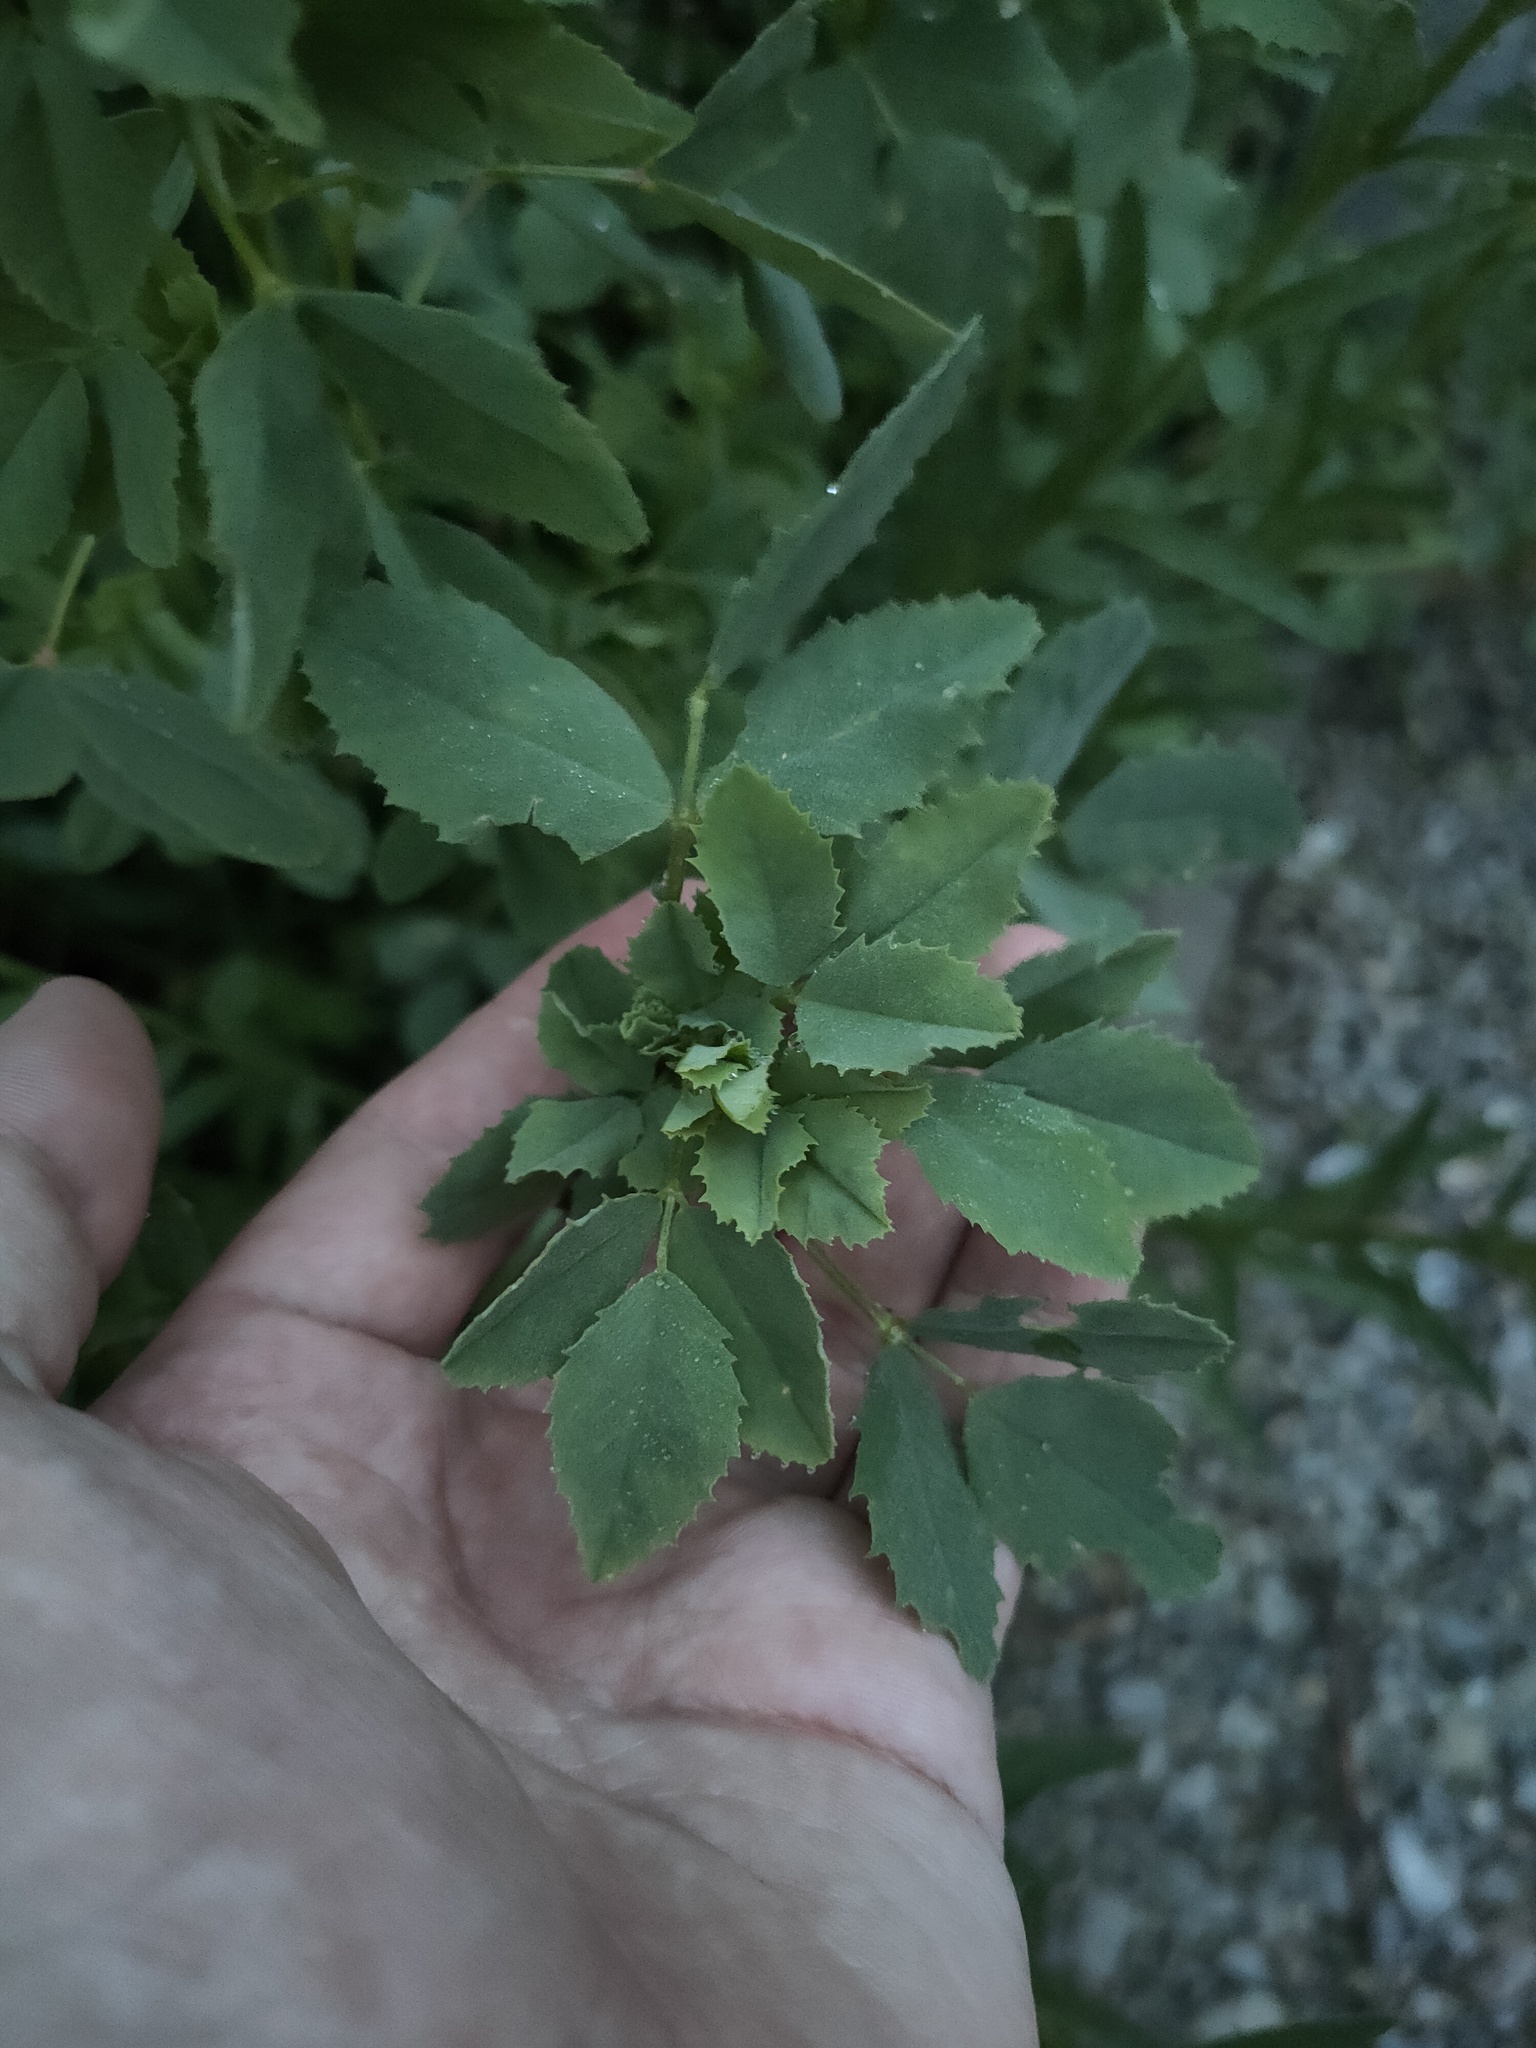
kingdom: Plantae
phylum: Tracheophyta
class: Magnoliopsida
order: Fabales
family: Fabaceae
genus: Medicago
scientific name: Medicago
